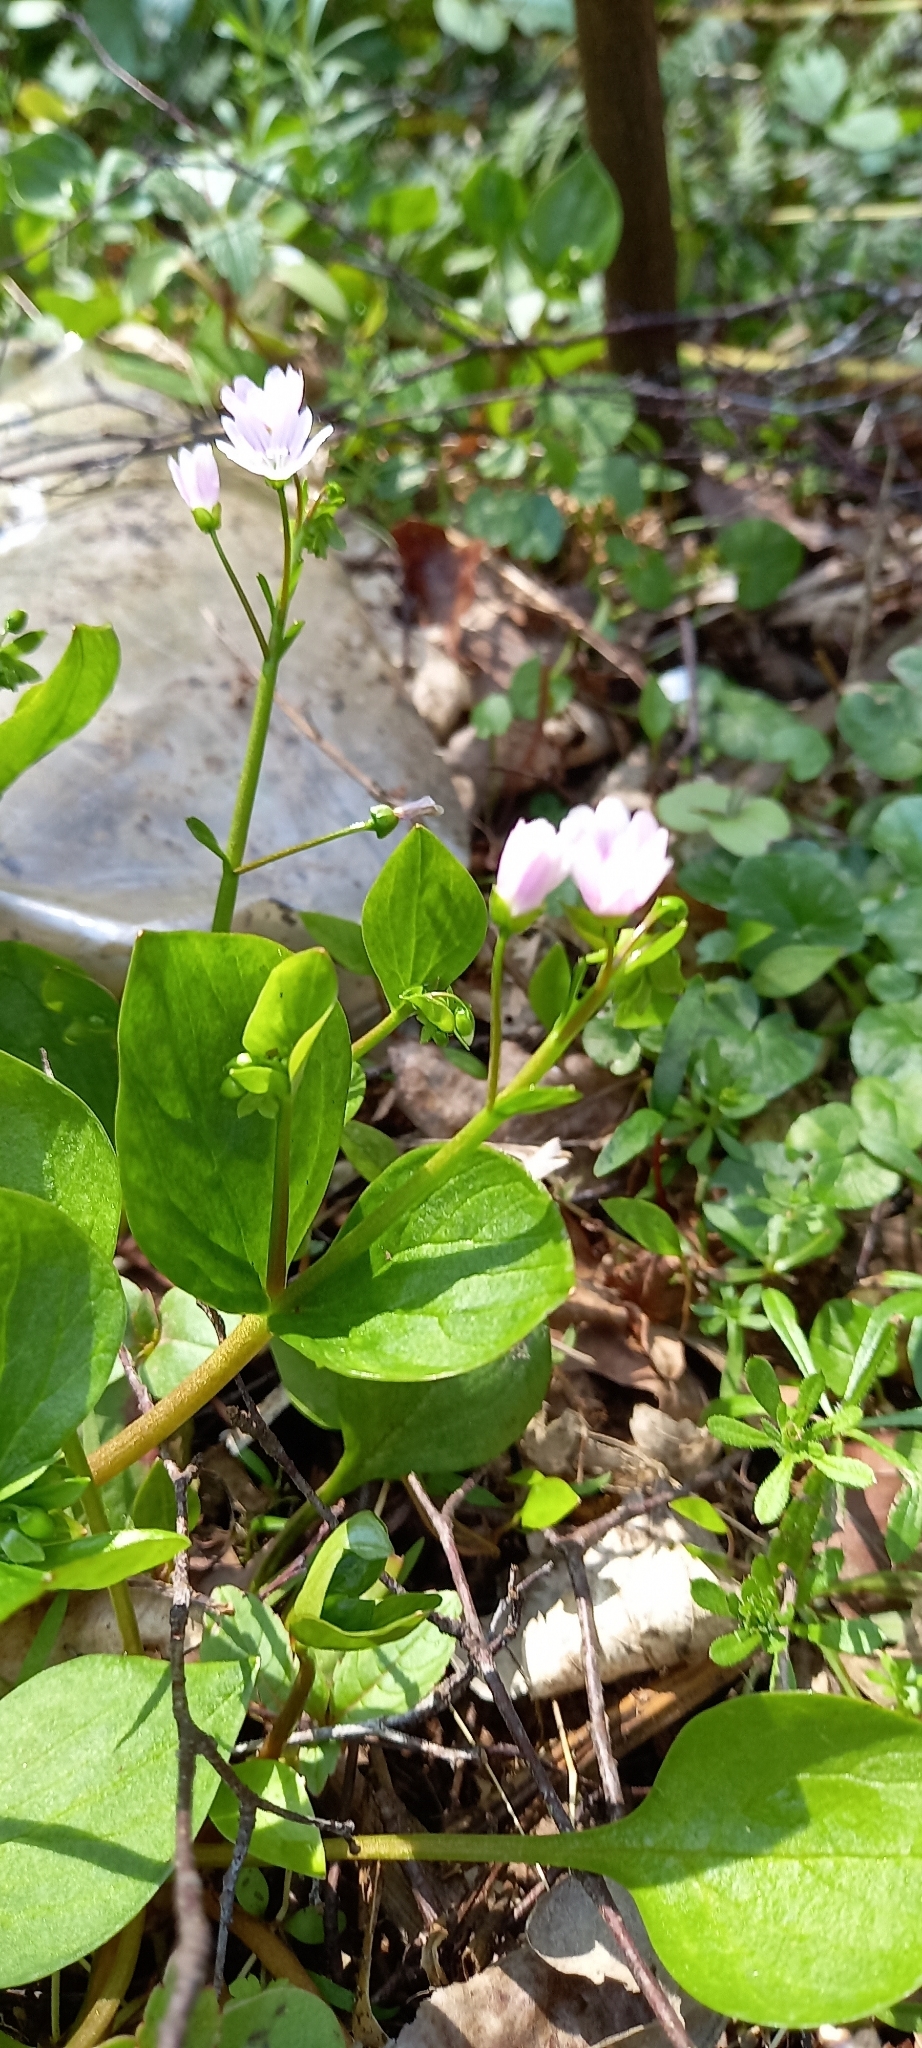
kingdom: Plantae
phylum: Tracheophyta
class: Magnoliopsida
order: Caryophyllales
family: Montiaceae
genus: Claytonia
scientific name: Claytonia sibirica
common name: Pink purslane
